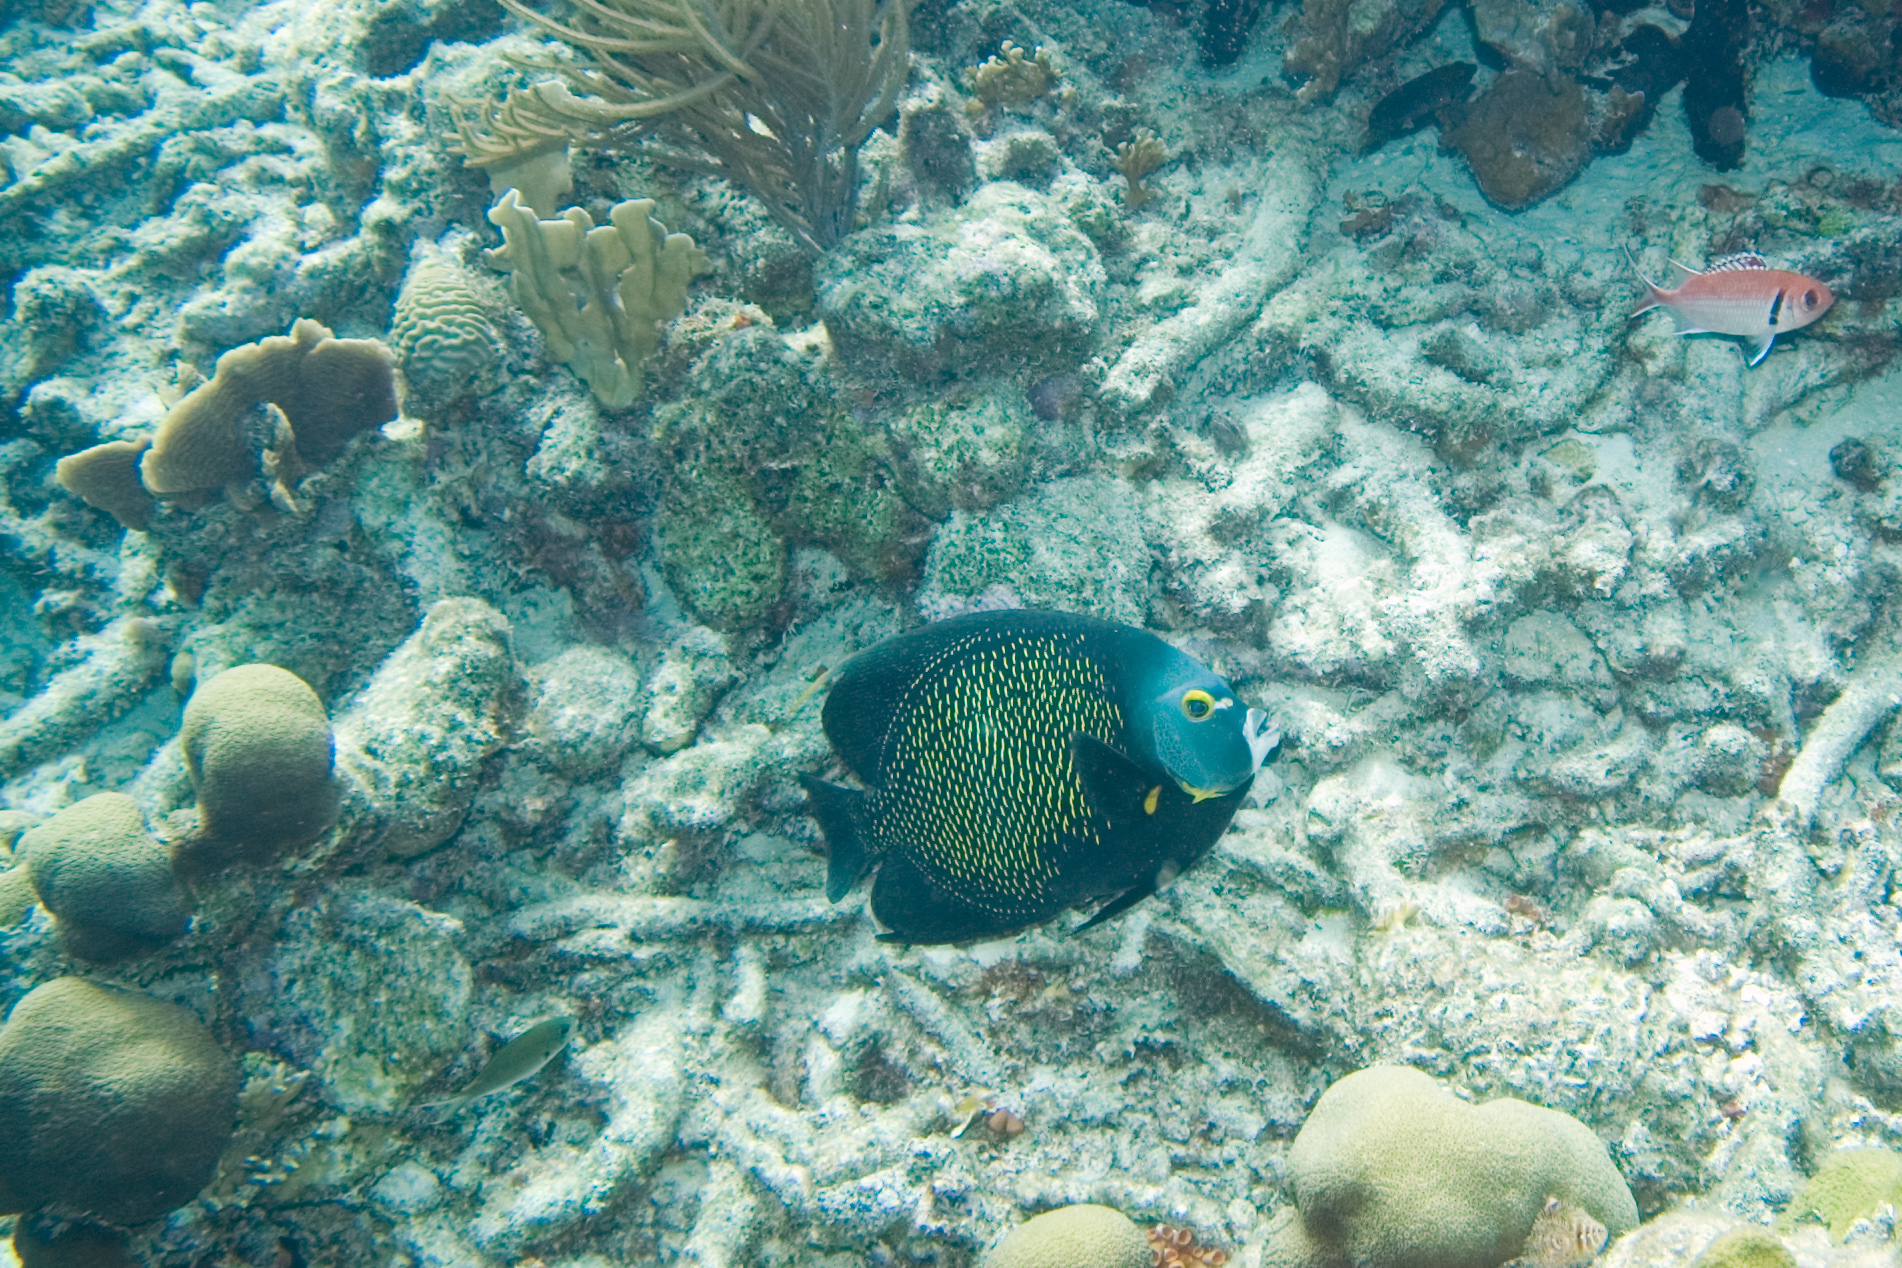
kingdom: Animalia
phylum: Chordata
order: Beryciformes
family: Holocentridae
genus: Myripristis
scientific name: Myripristis jacobus
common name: Blackbar soldierfish
